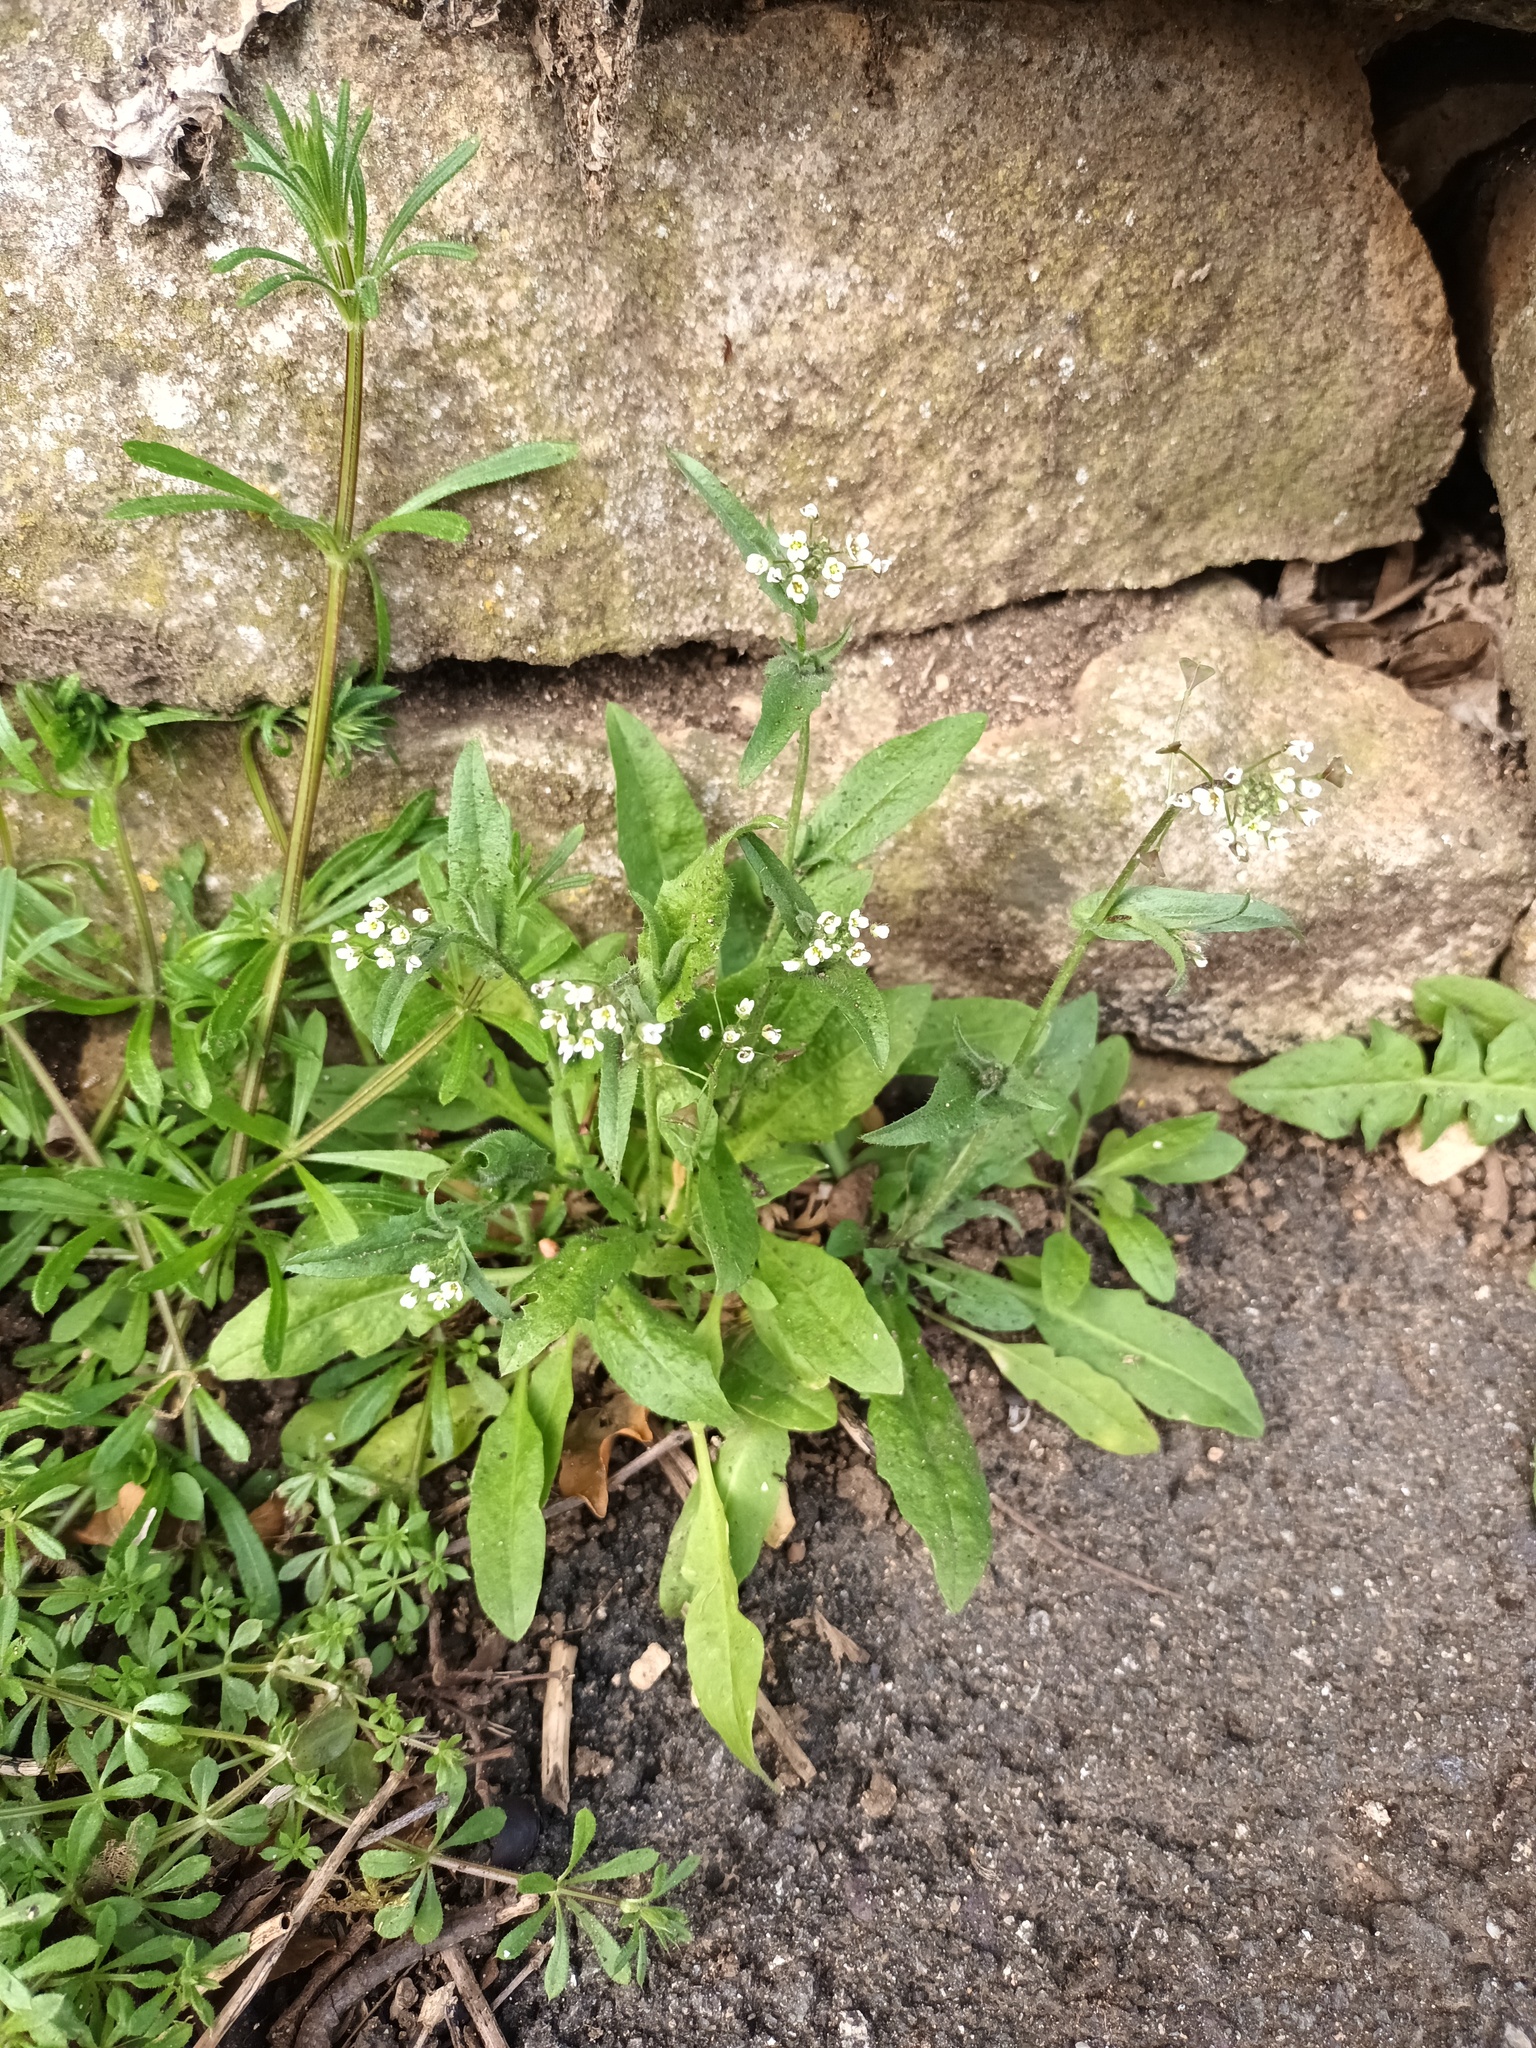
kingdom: Plantae
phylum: Tracheophyta
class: Magnoliopsida
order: Brassicales
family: Brassicaceae
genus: Capsella
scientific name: Capsella bursa-pastoris
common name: Shepherd's purse
